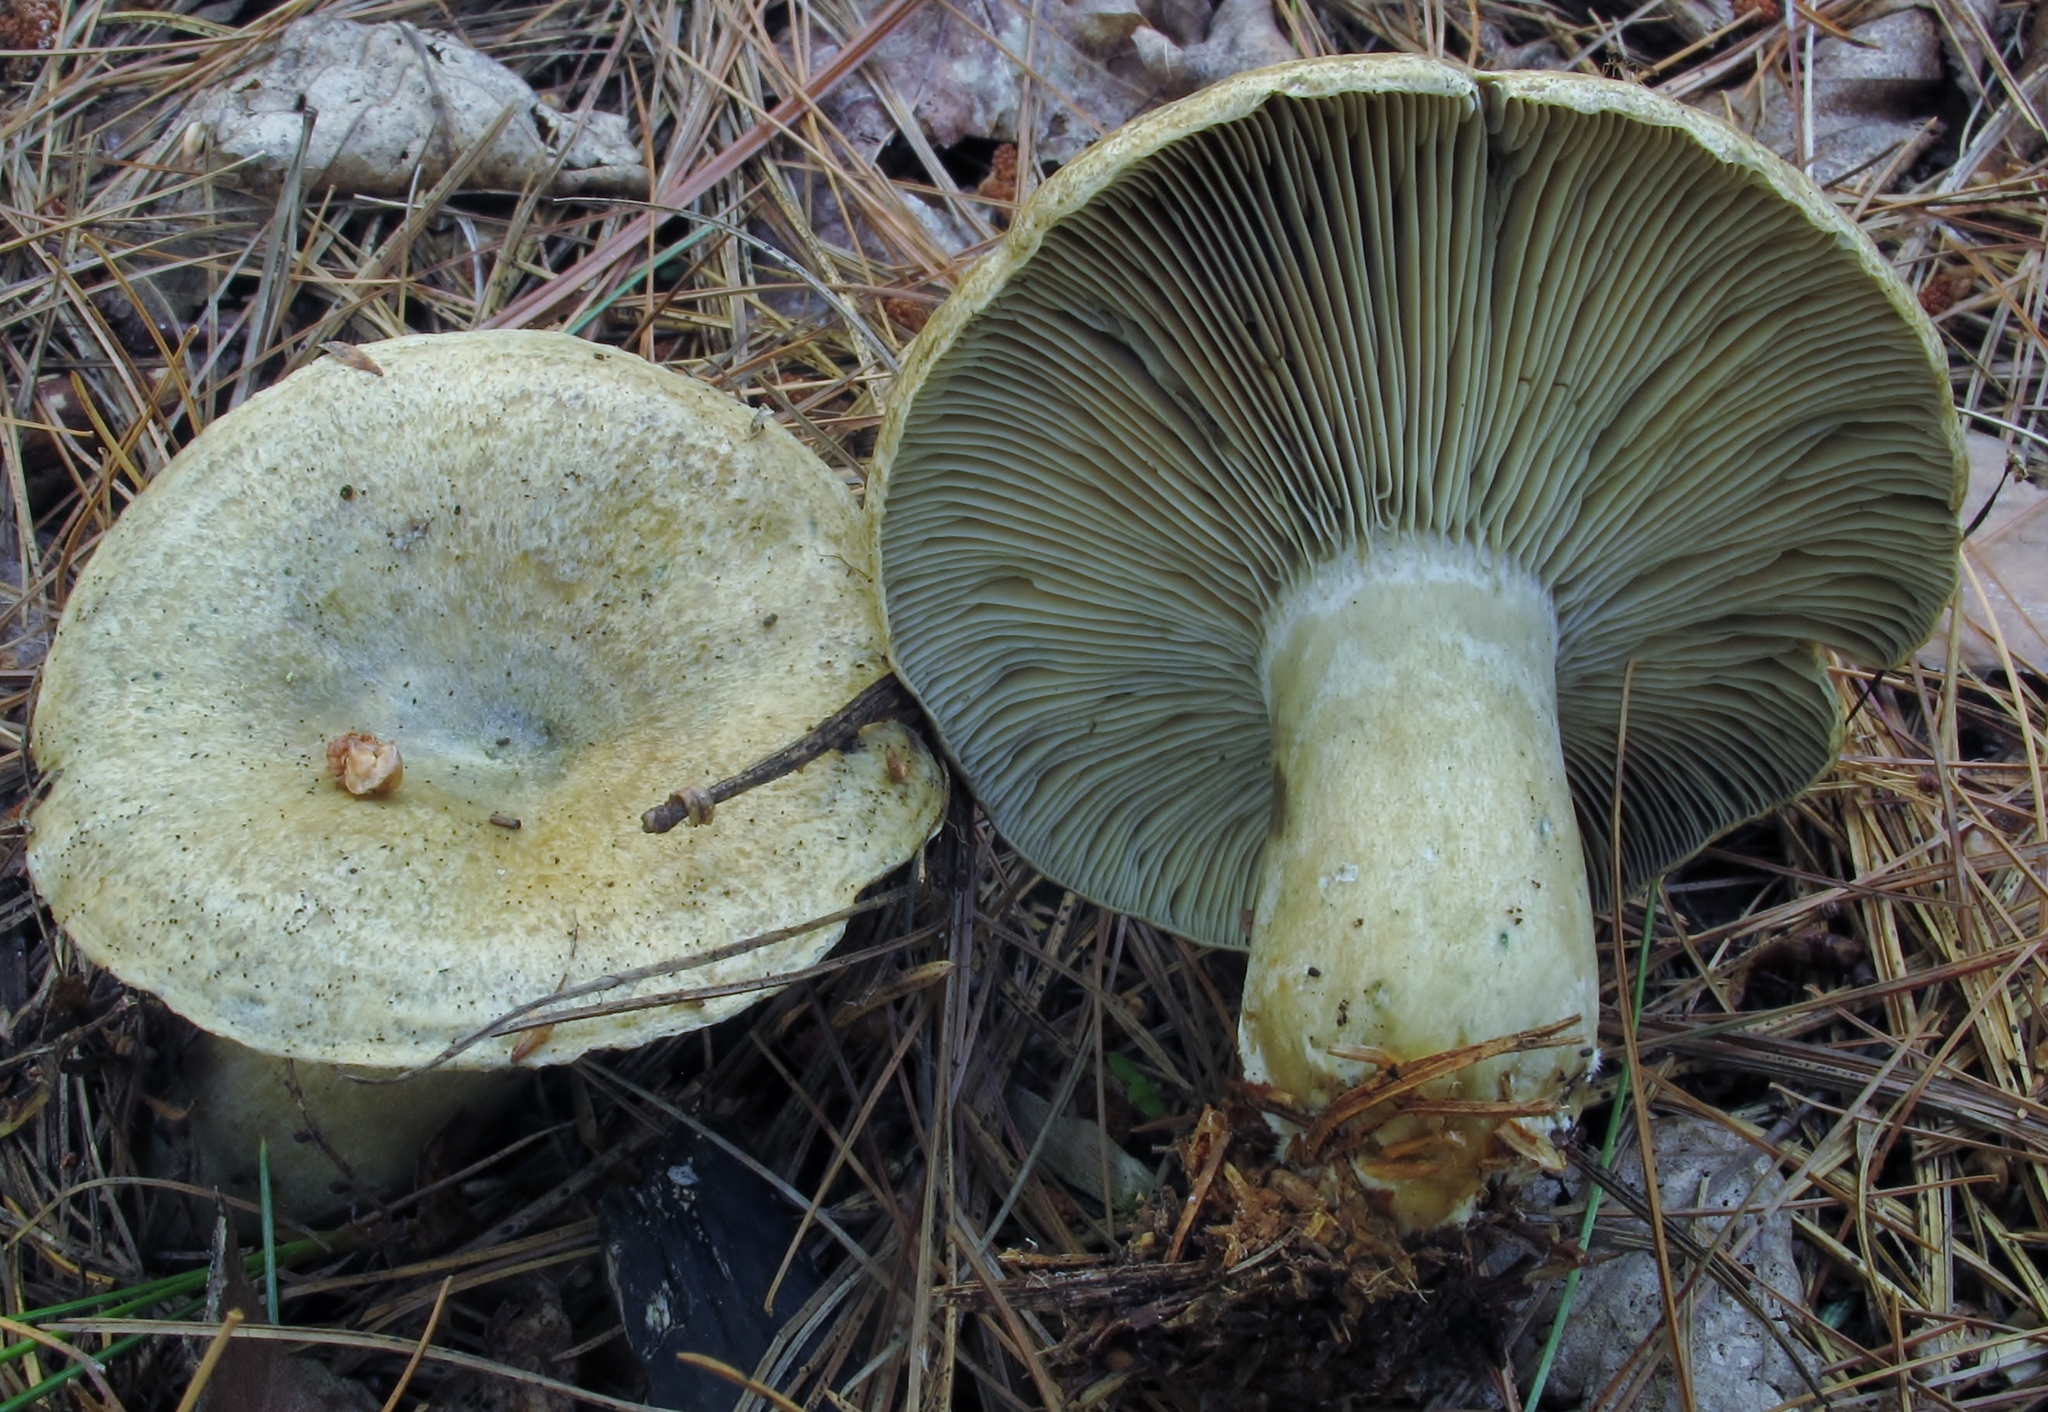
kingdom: Fungi
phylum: Basidiomycota
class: Agaricomycetes
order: Russulales
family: Russulaceae
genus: Lactarius
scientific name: Lactarius chelidonium
